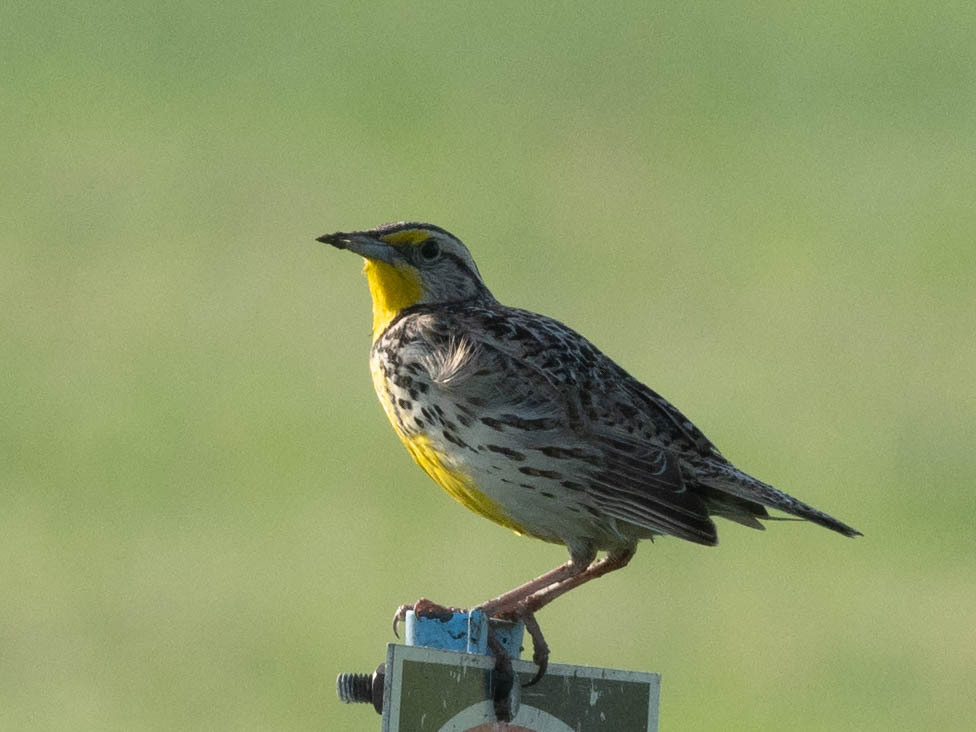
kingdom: Animalia
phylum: Chordata
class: Aves
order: Passeriformes
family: Icteridae
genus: Sturnella
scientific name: Sturnella neglecta
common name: Western meadowlark
